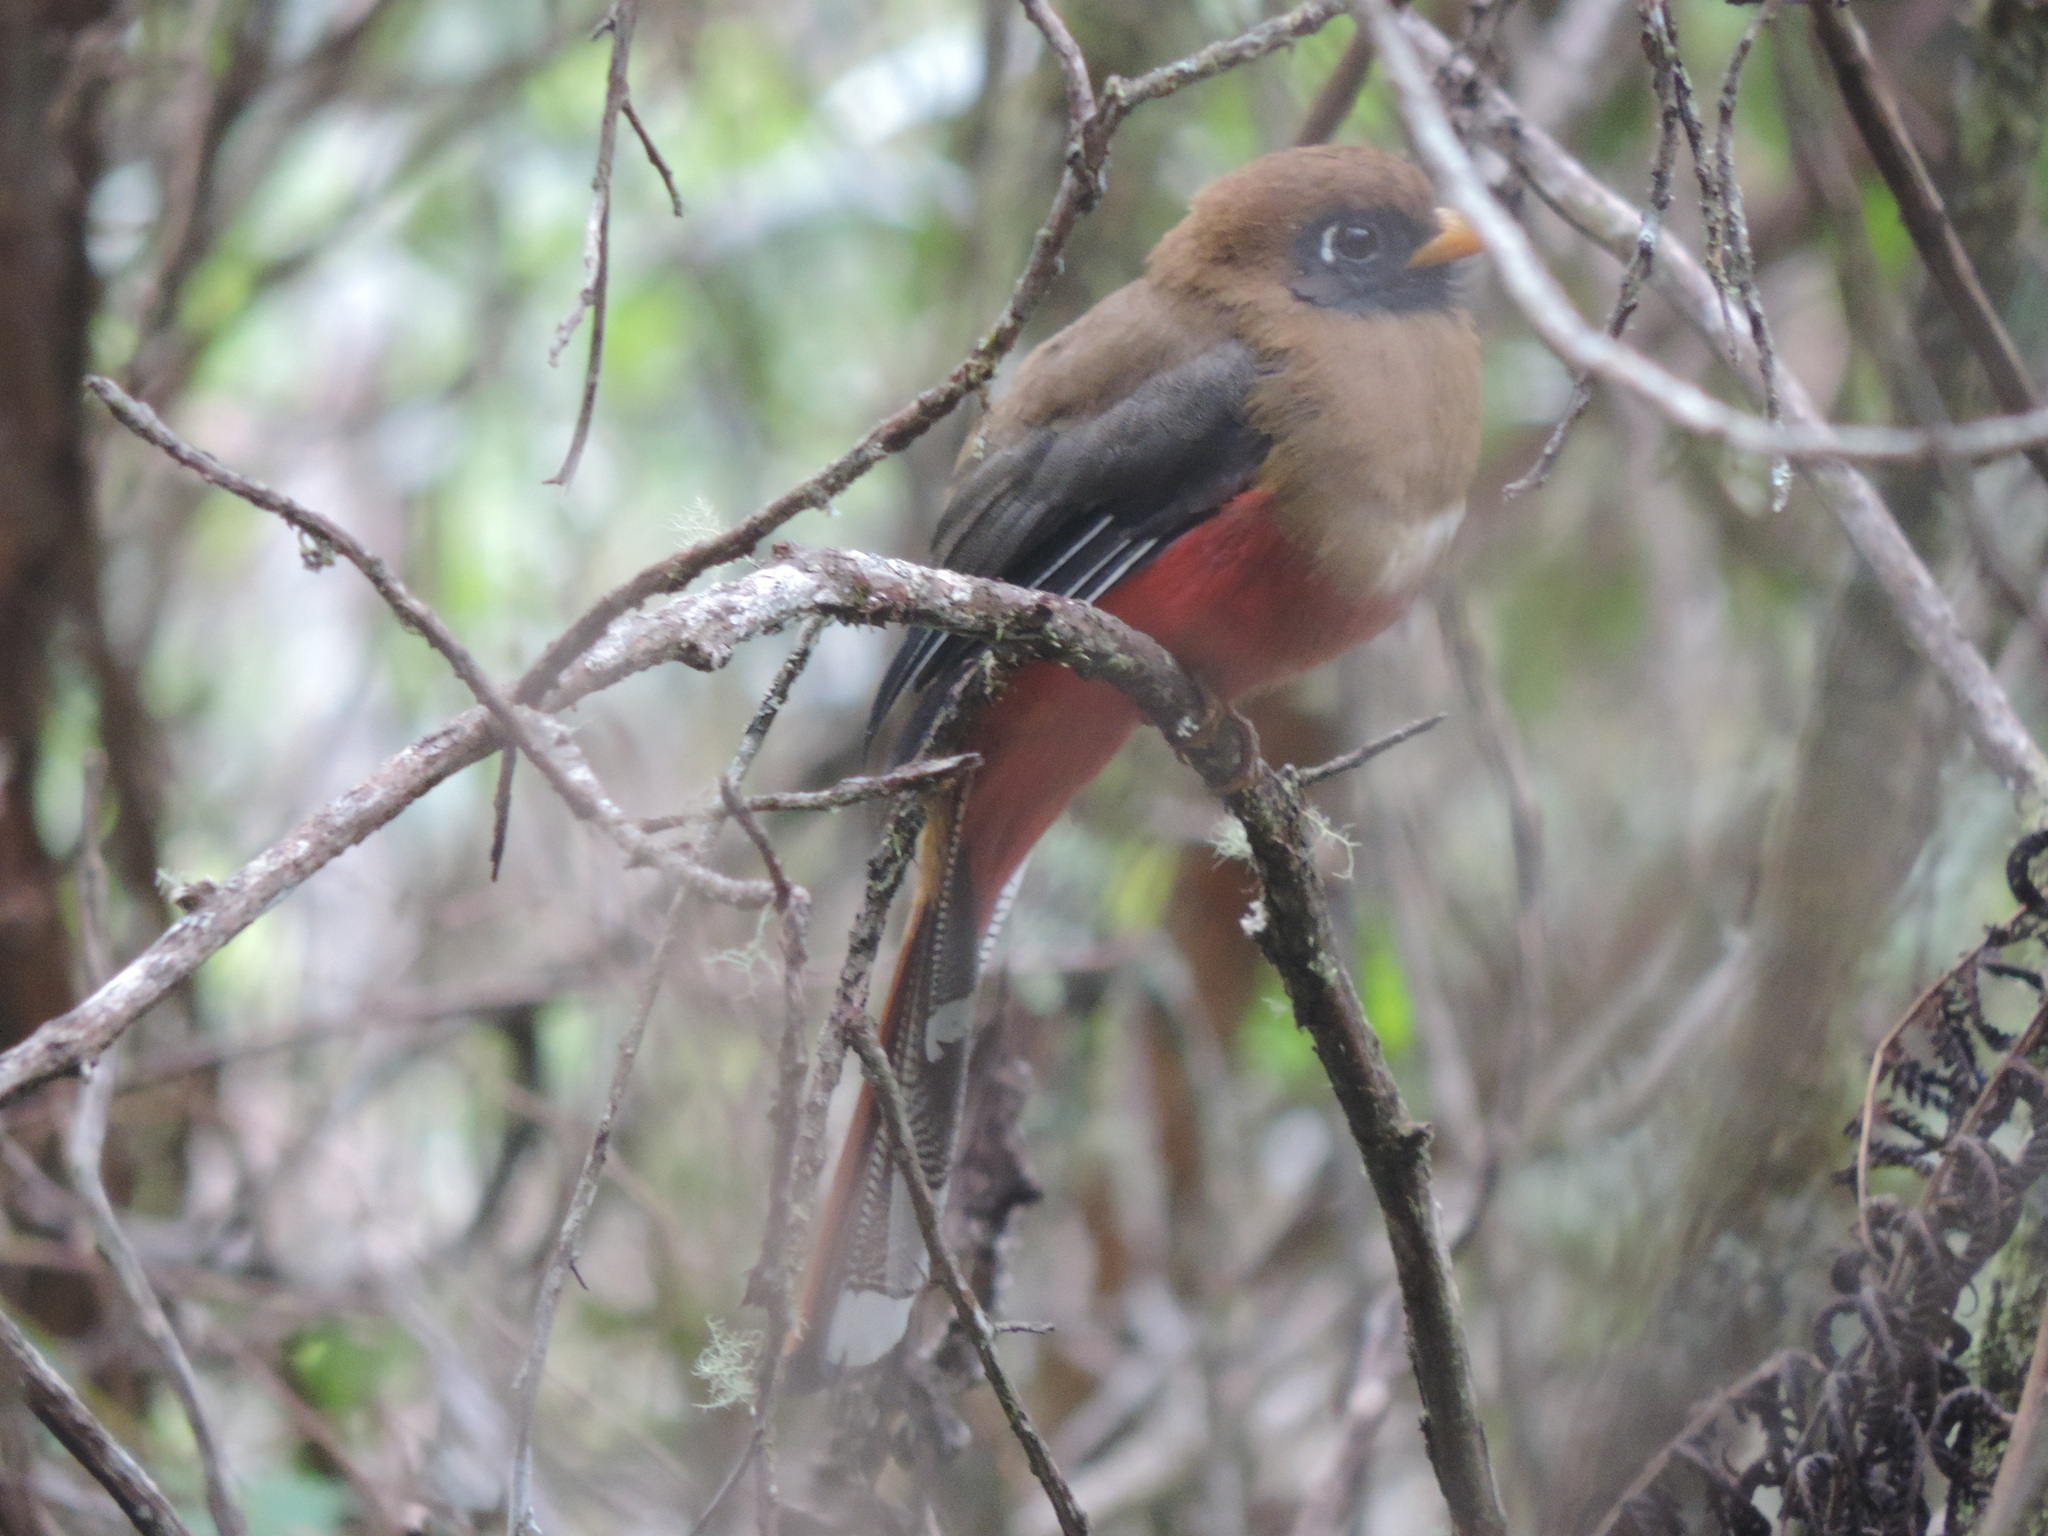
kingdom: Animalia
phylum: Chordata
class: Aves
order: Trogoniformes
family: Trogonidae
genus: Trogon
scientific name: Trogon personatus
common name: Masked trogon
